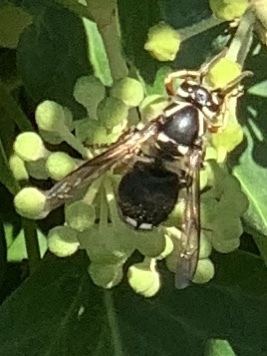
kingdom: Animalia
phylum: Arthropoda
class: Insecta
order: Hymenoptera
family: Vespidae
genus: Dolichovespula
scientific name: Dolichovespula maculata
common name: Bald-faced hornet
